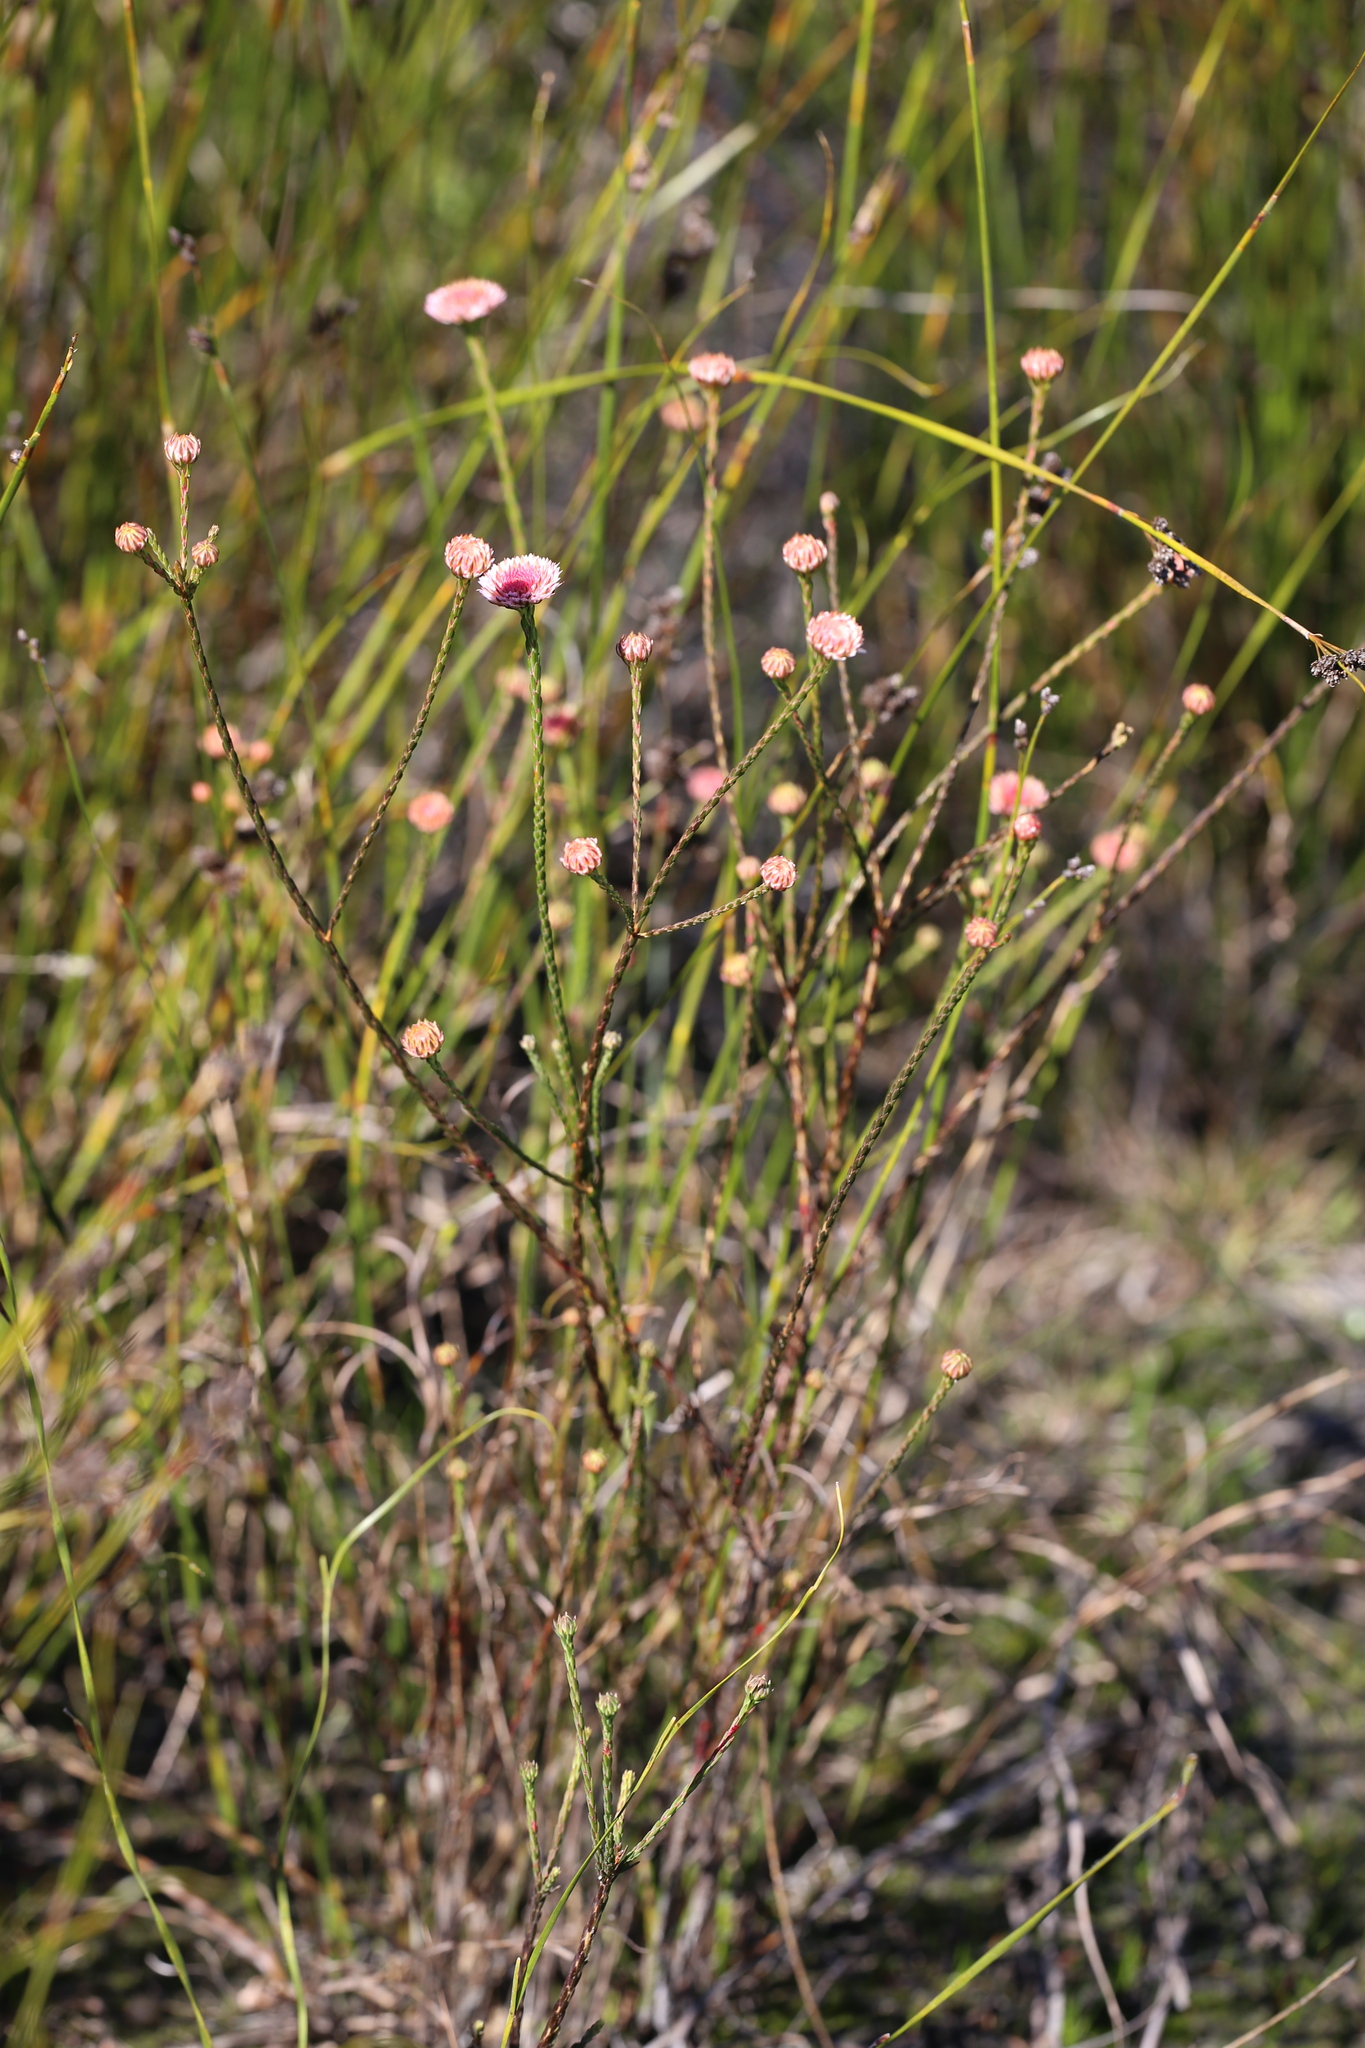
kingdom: Plantae
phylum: Tracheophyta
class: Magnoliopsida
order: Myrtales
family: Myrtaceae
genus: Actinodium
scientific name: Actinodium cunninghamii
